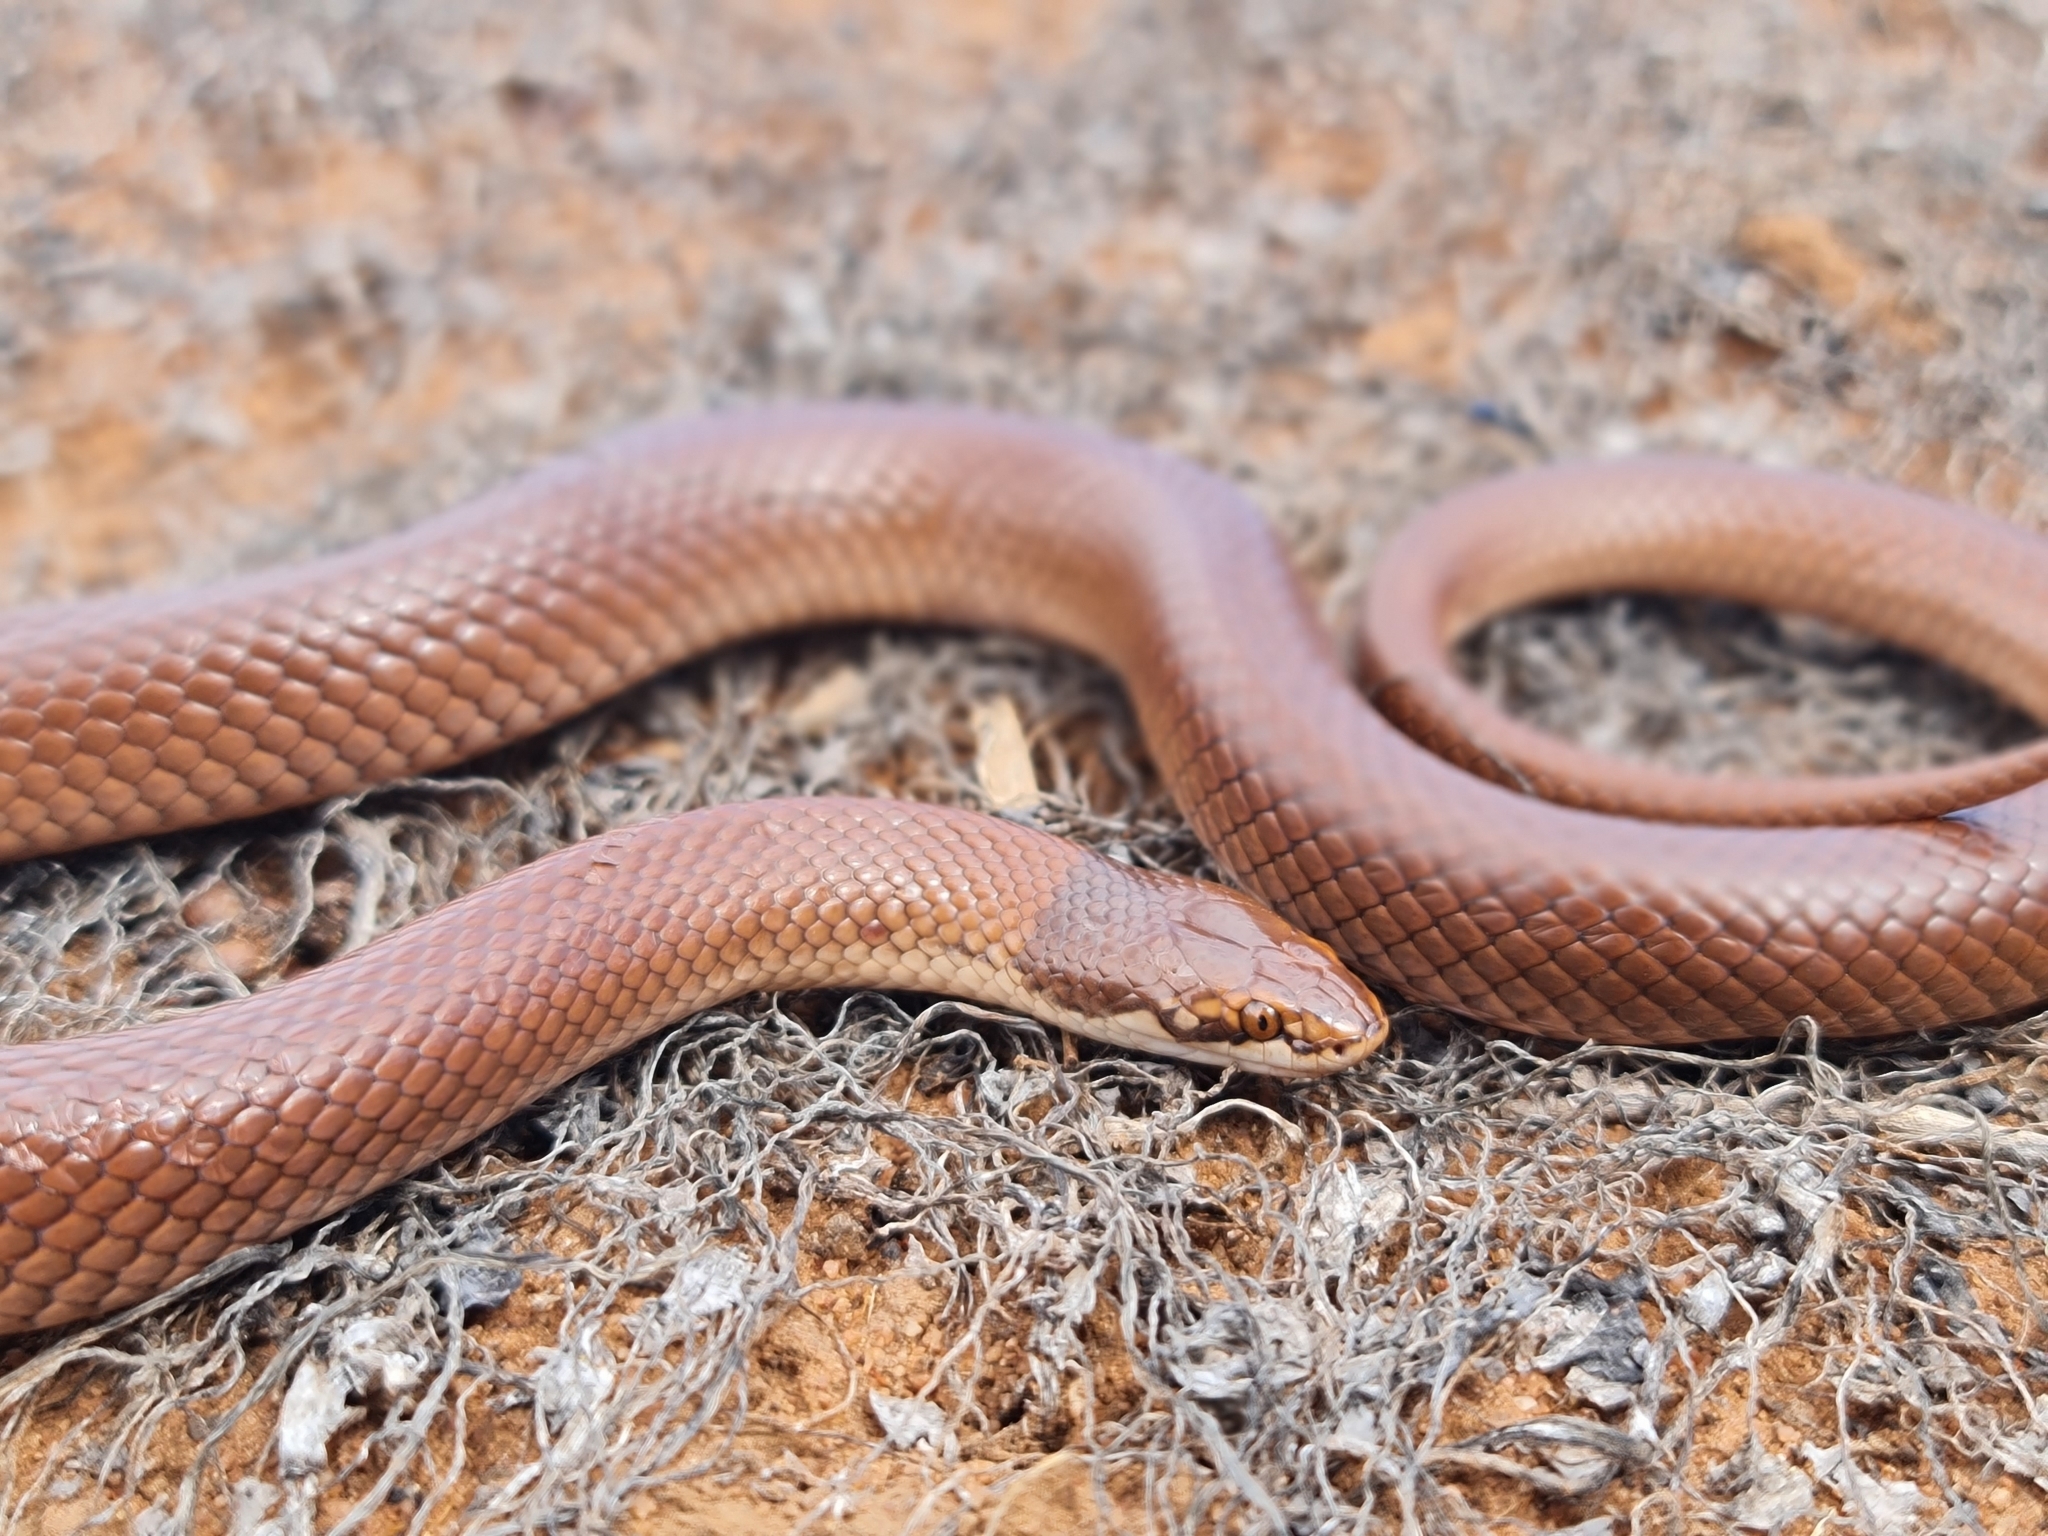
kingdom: Animalia
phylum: Chordata
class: Squamata
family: Elapidae
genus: Suta
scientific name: Suta suta
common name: Curl snake
